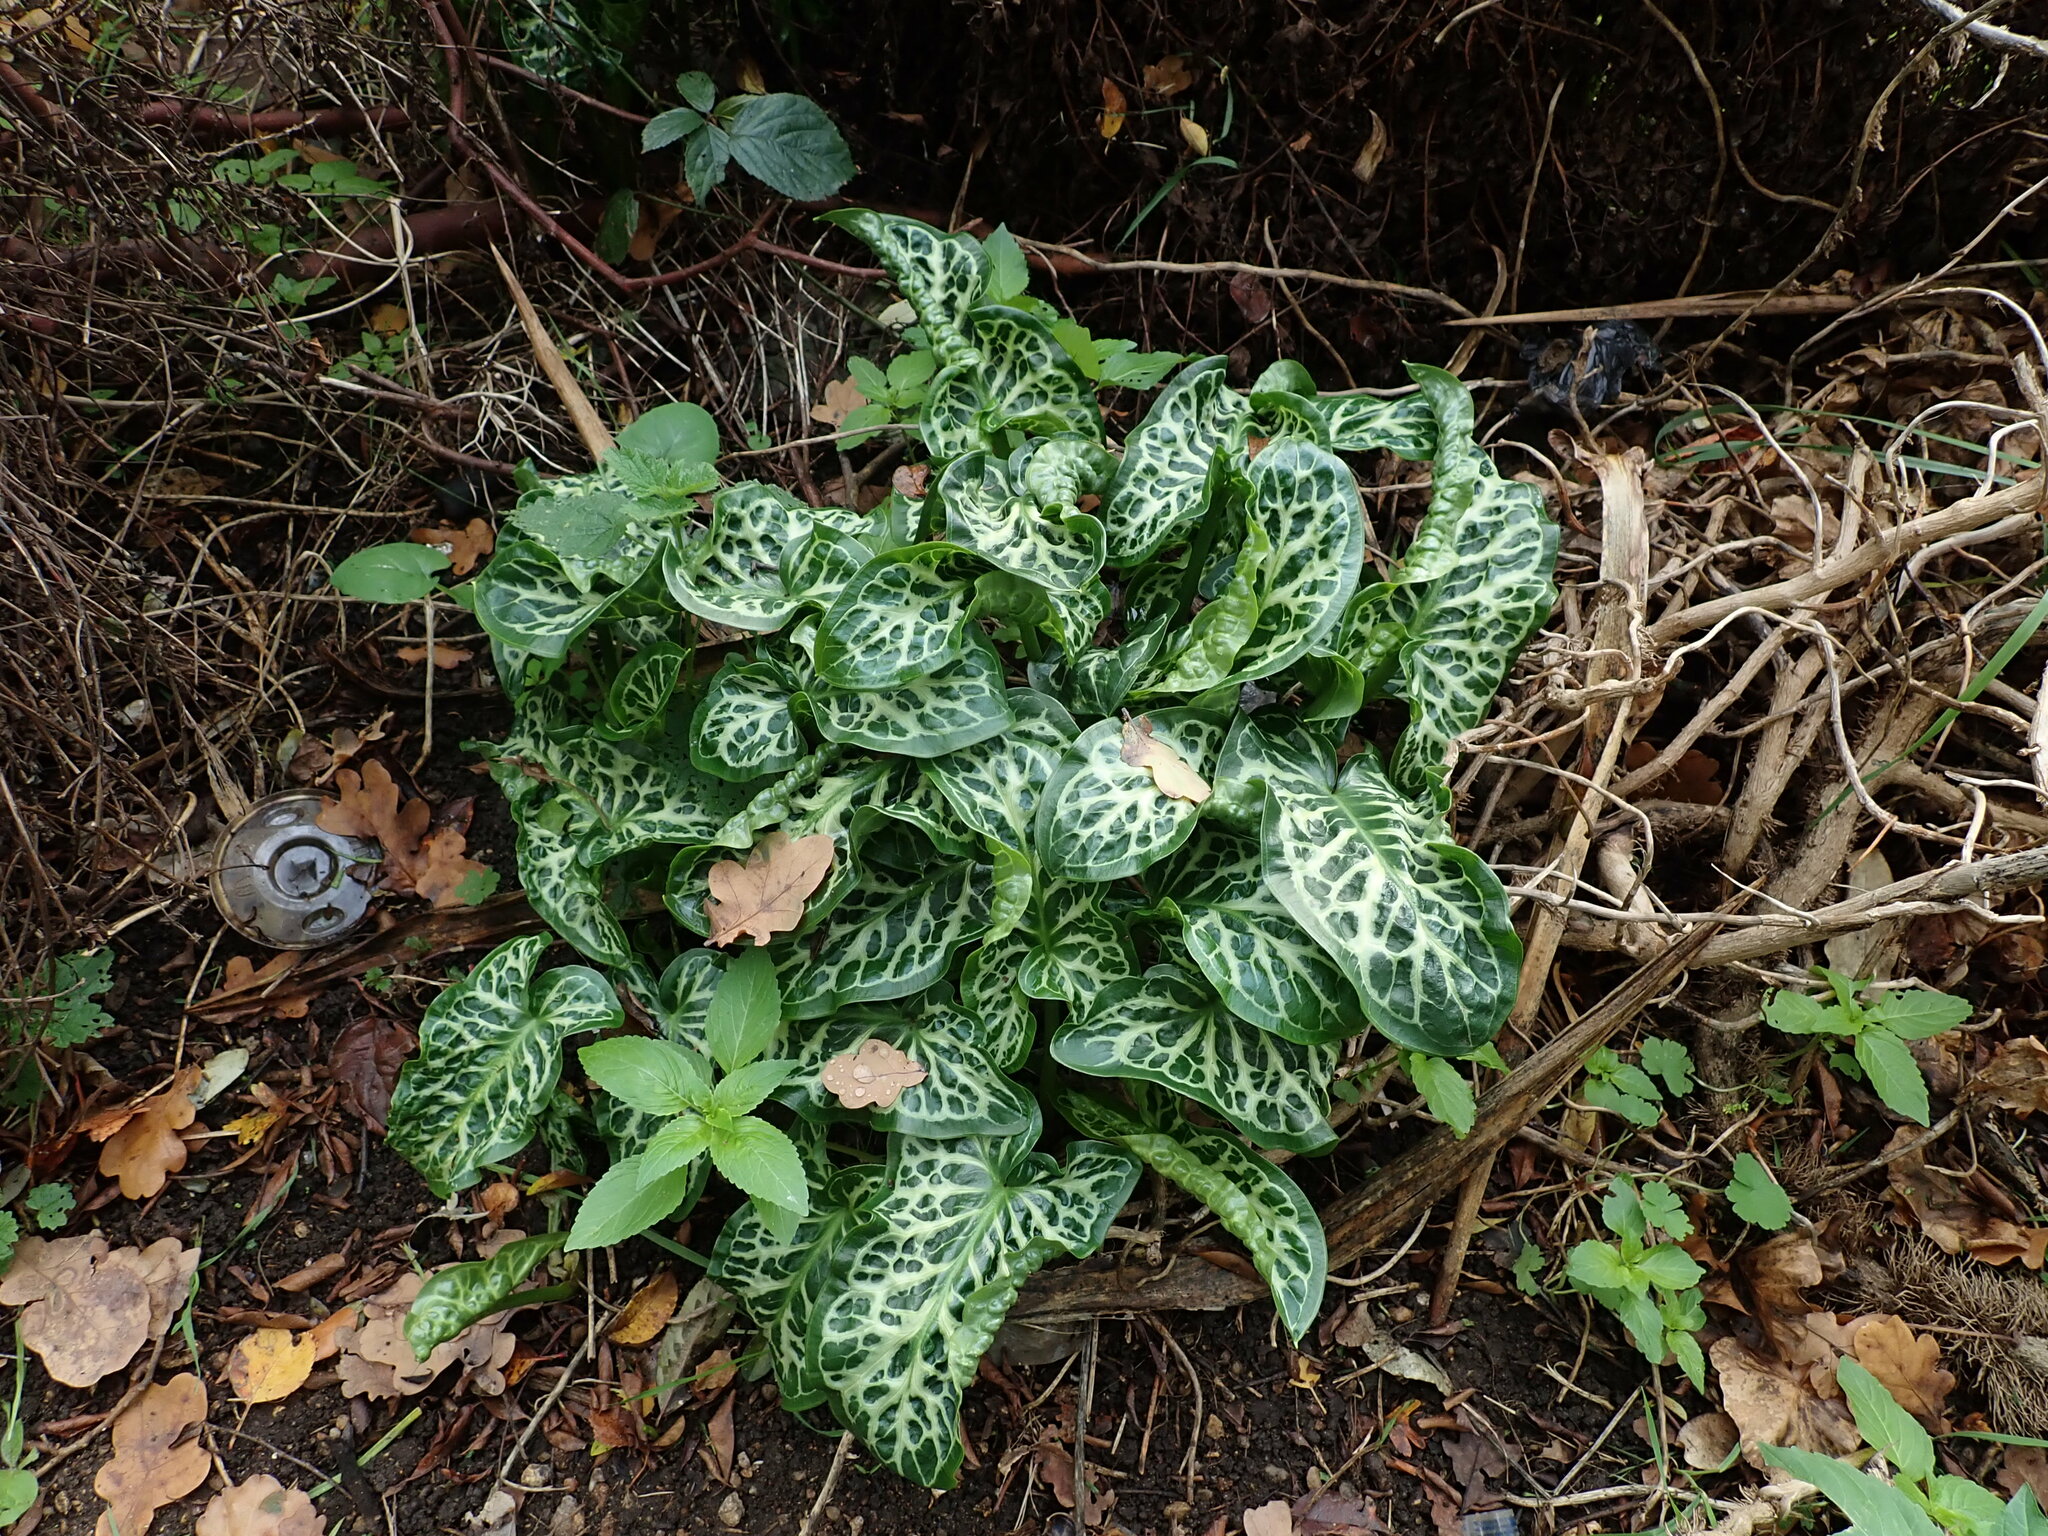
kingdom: Plantae
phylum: Tracheophyta
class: Liliopsida
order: Alismatales
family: Araceae
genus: Arum
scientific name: Arum italicum
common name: Italian lords-and-ladies
